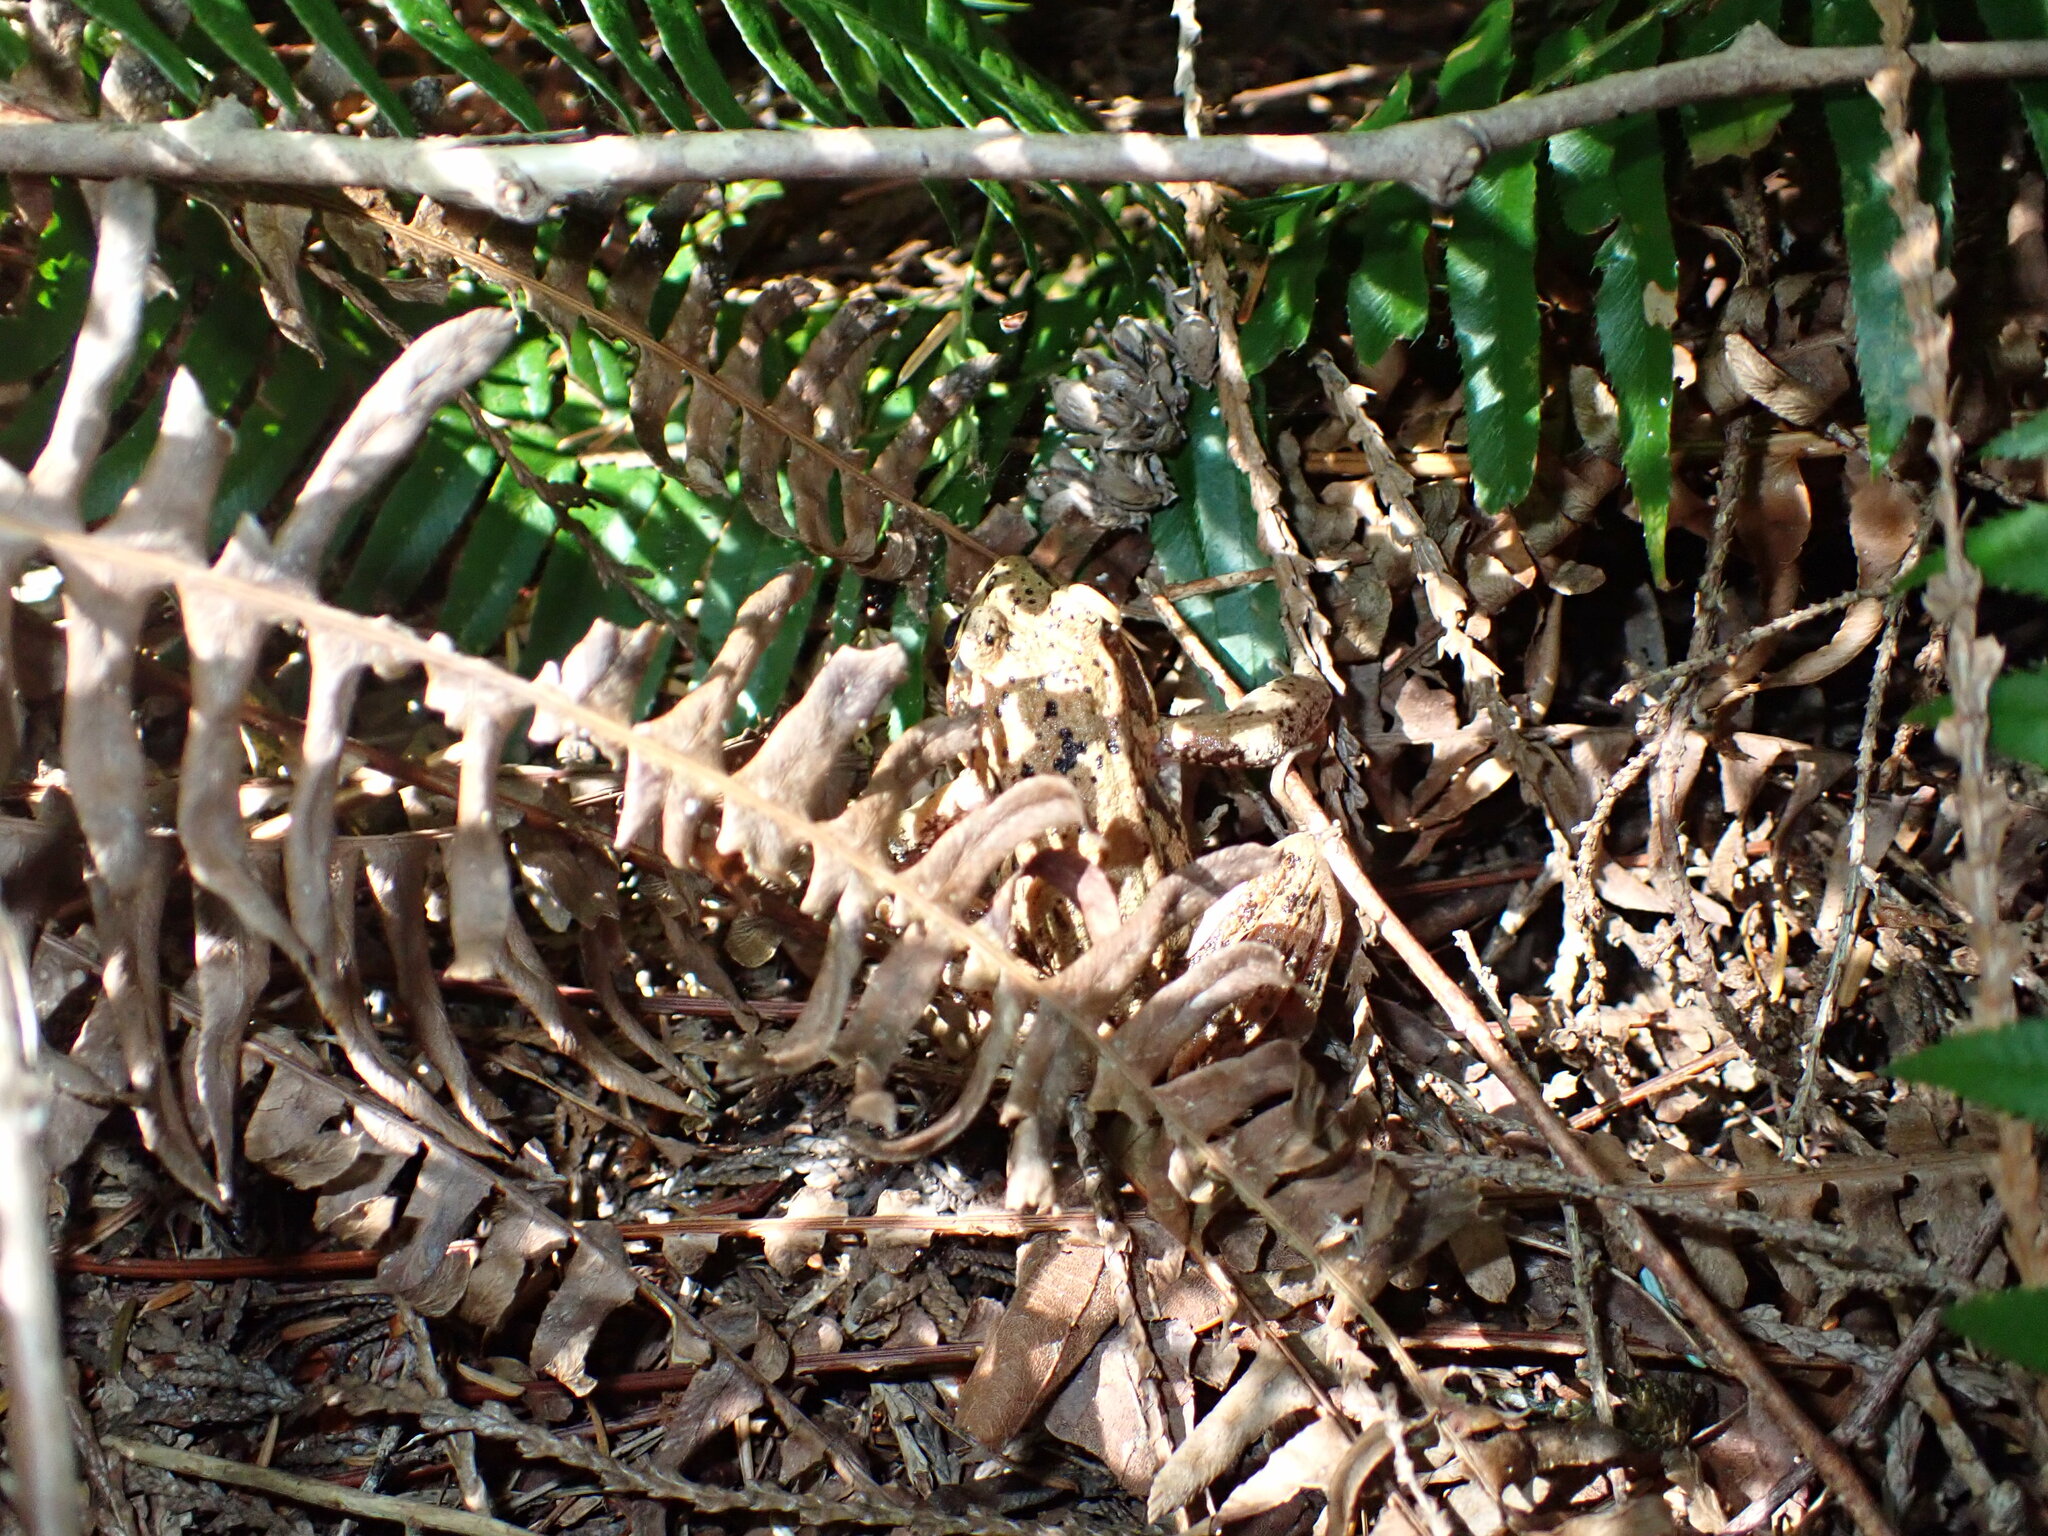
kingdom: Animalia
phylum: Chordata
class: Amphibia
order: Anura
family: Ranidae
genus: Rana
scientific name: Rana aurora
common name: Red-legged frog
